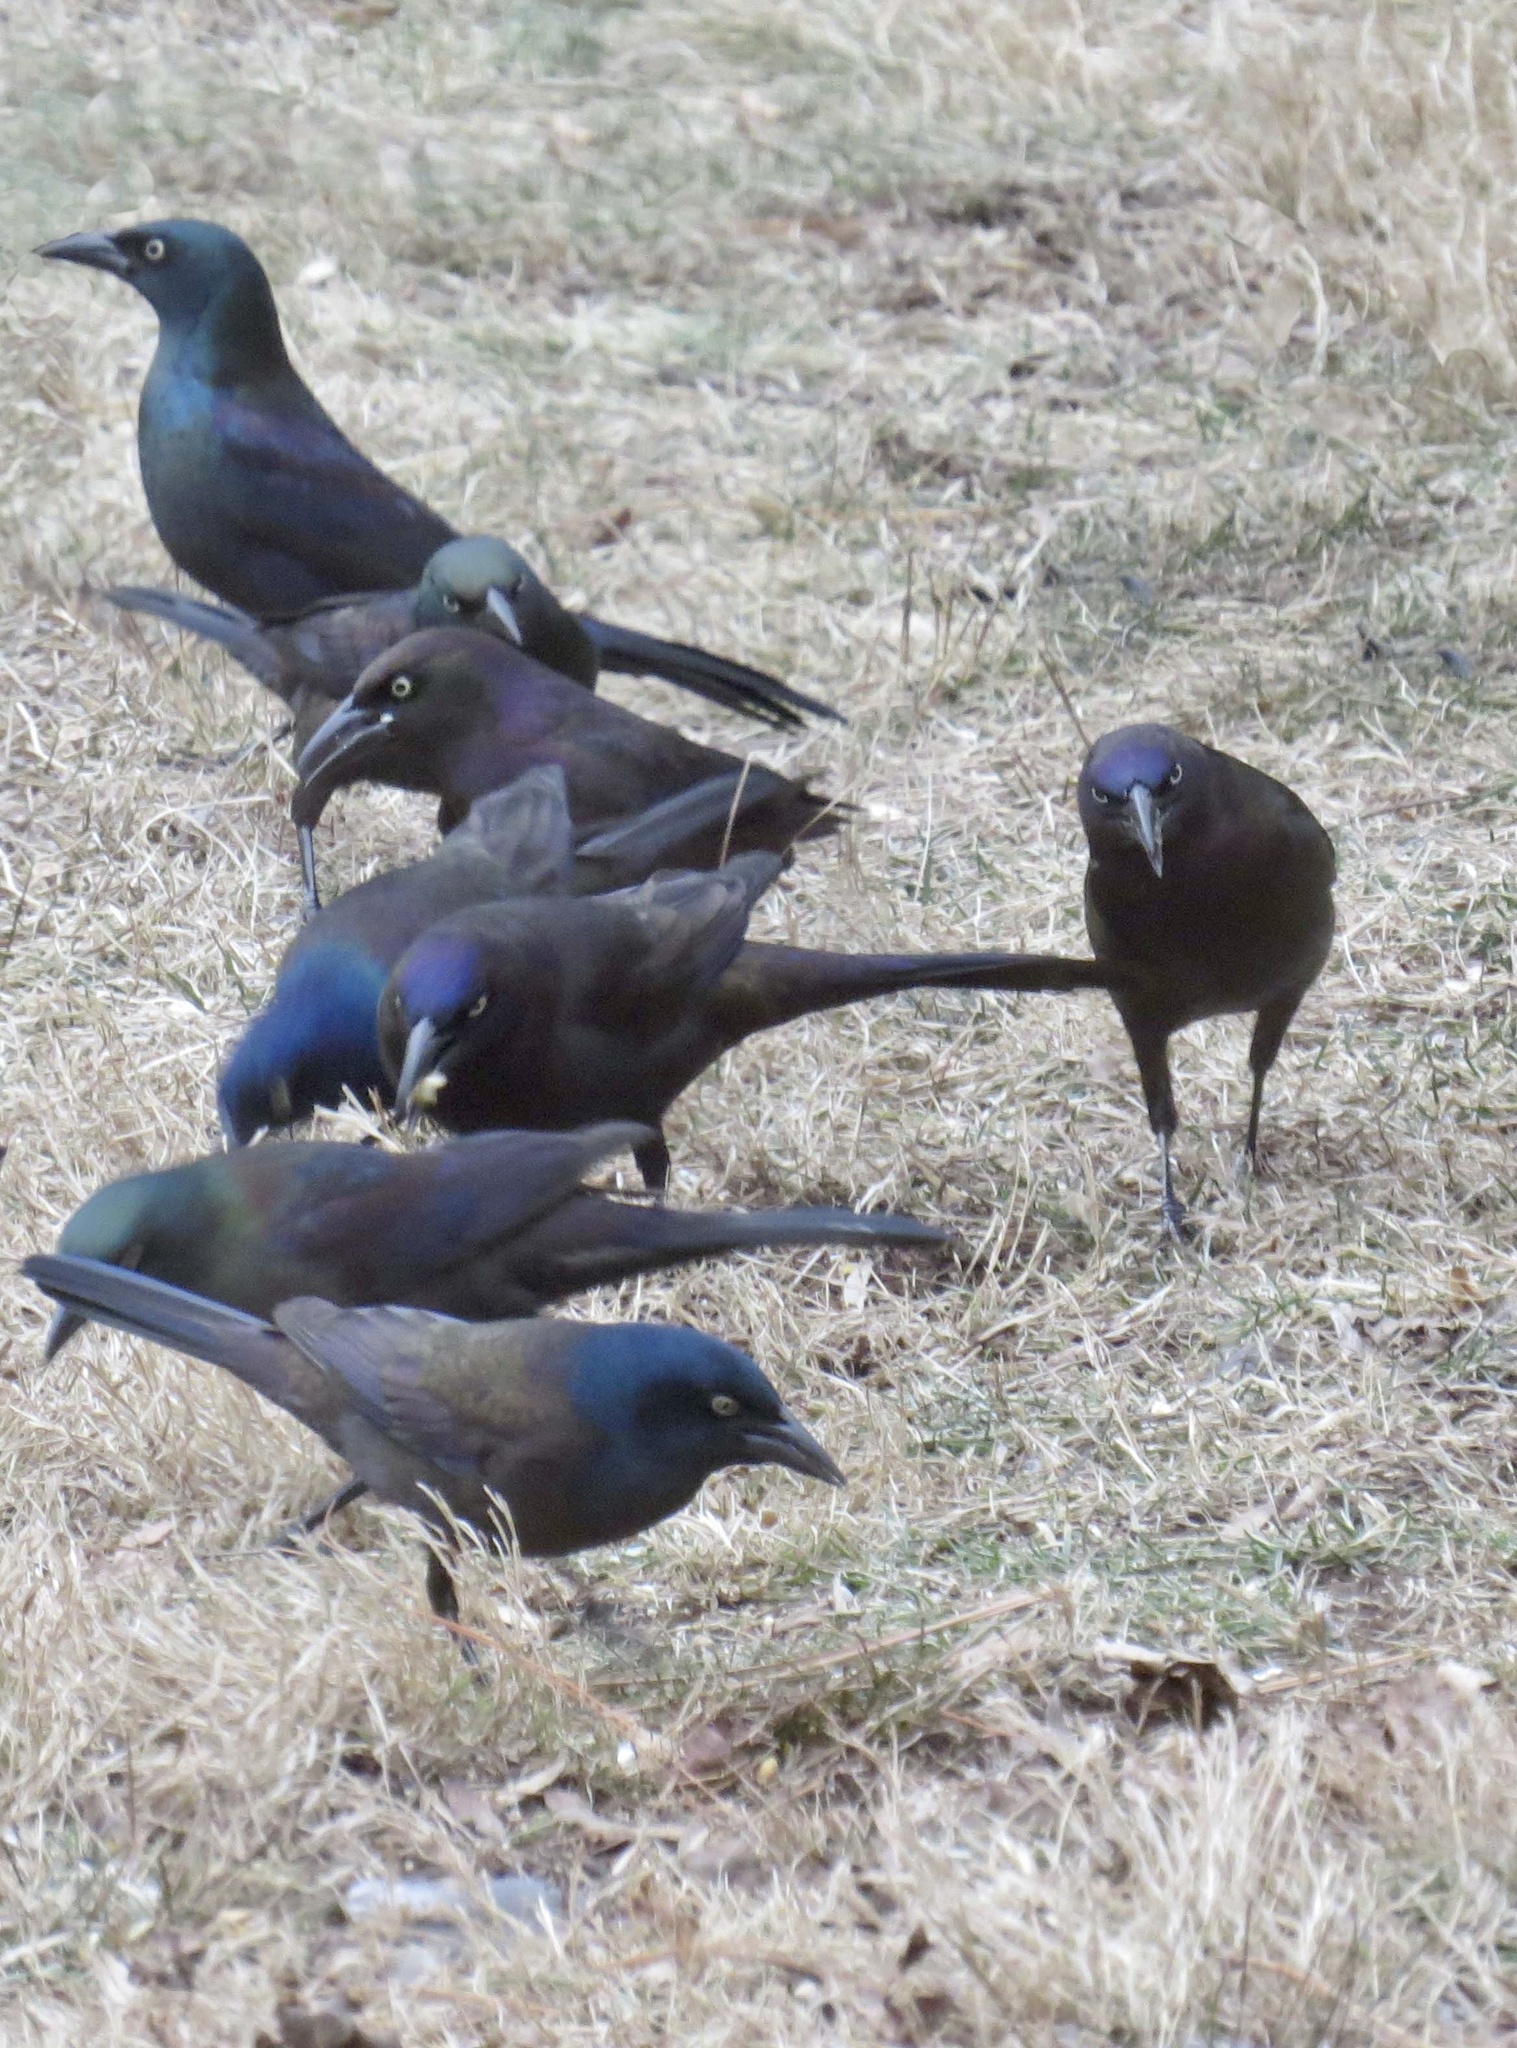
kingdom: Animalia
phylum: Chordata
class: Aves
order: Passeriformes
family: Icteridae
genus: Quiscalus
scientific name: Quiscalus quiscula
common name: Common grackle
